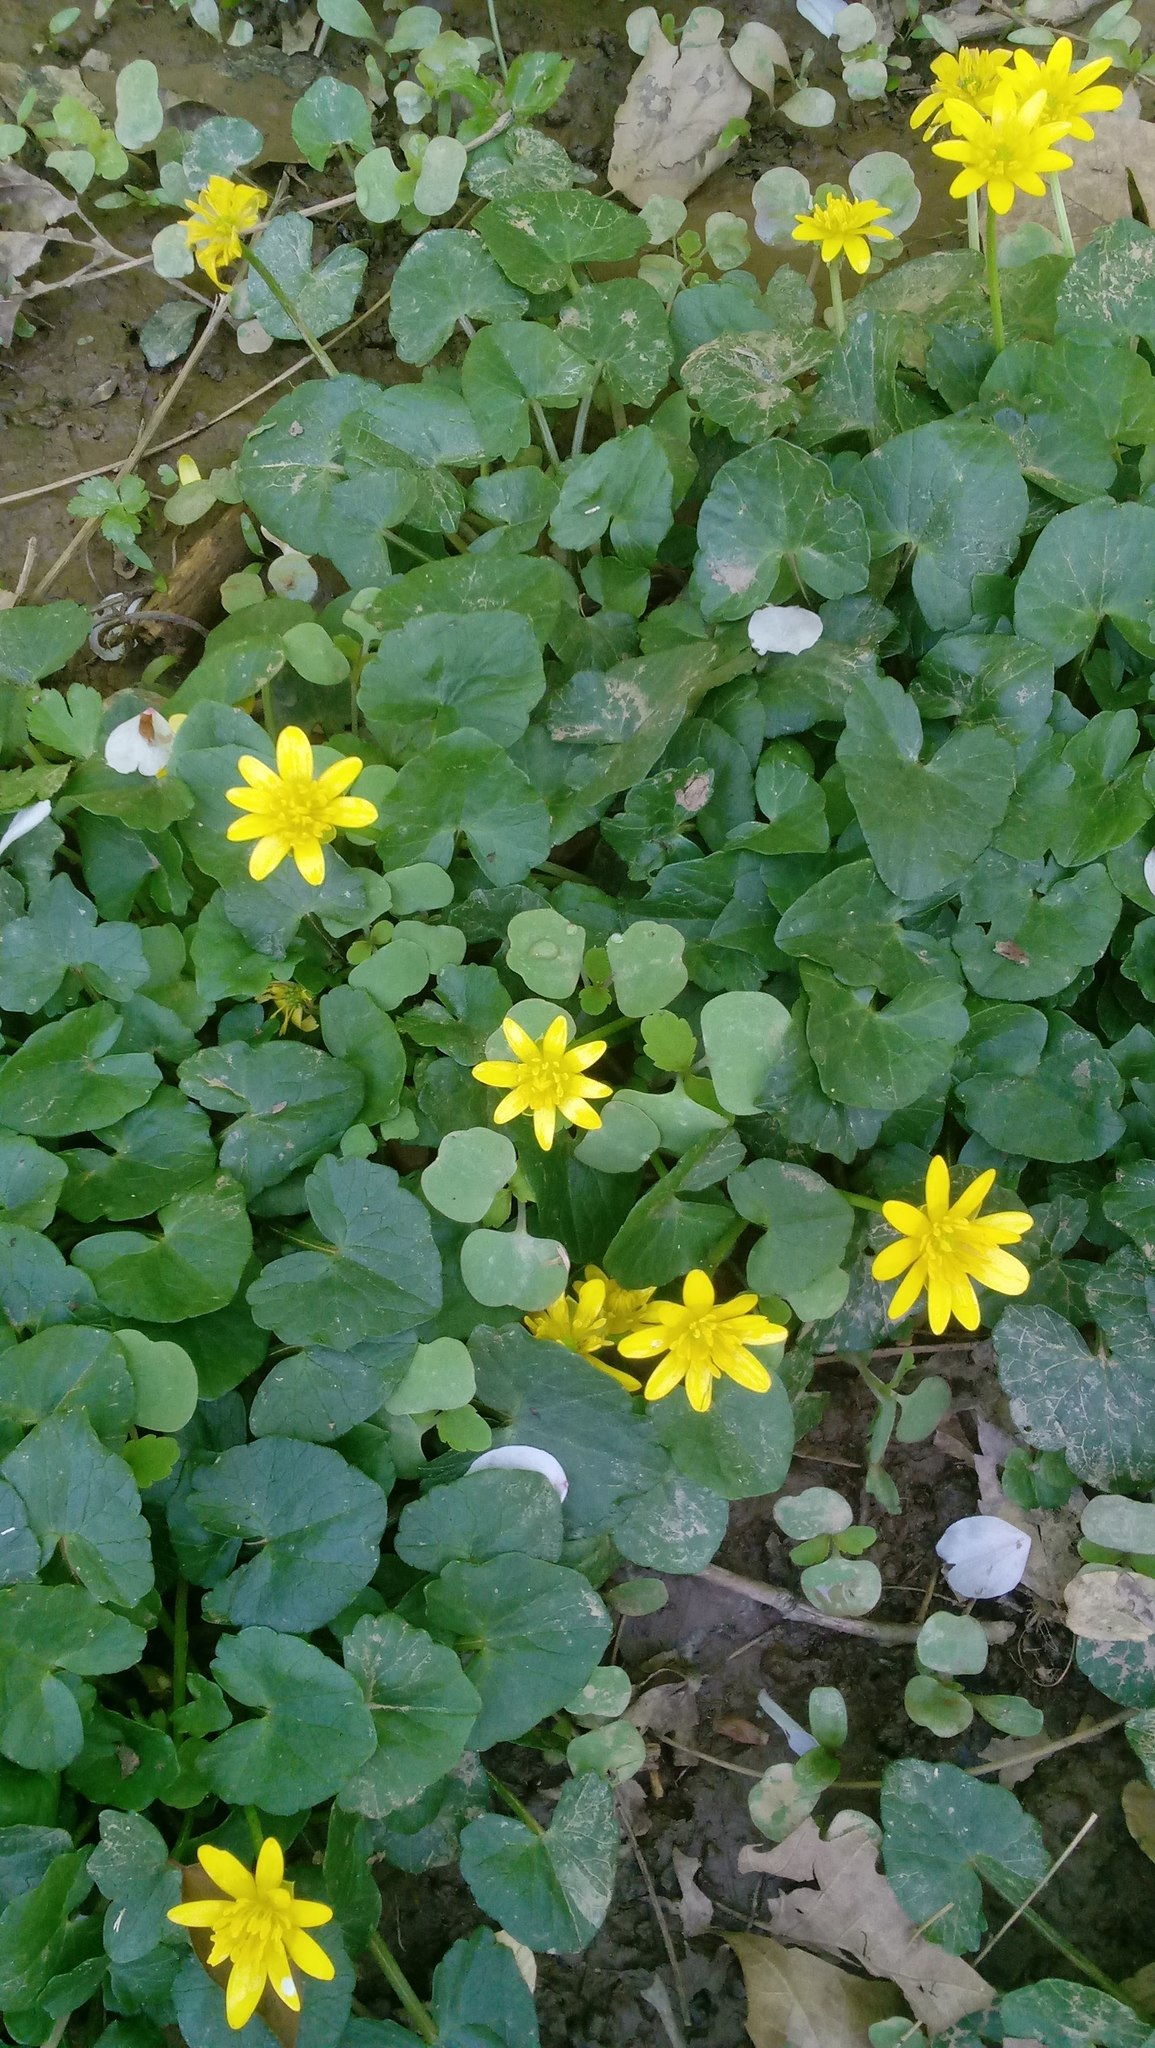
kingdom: Plantae
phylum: Tracheophyta
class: Magnoliopsida
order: Ranunculales
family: Ranunculaceae
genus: Ficaria
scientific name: Ficaria verna
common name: Lesser celandine
